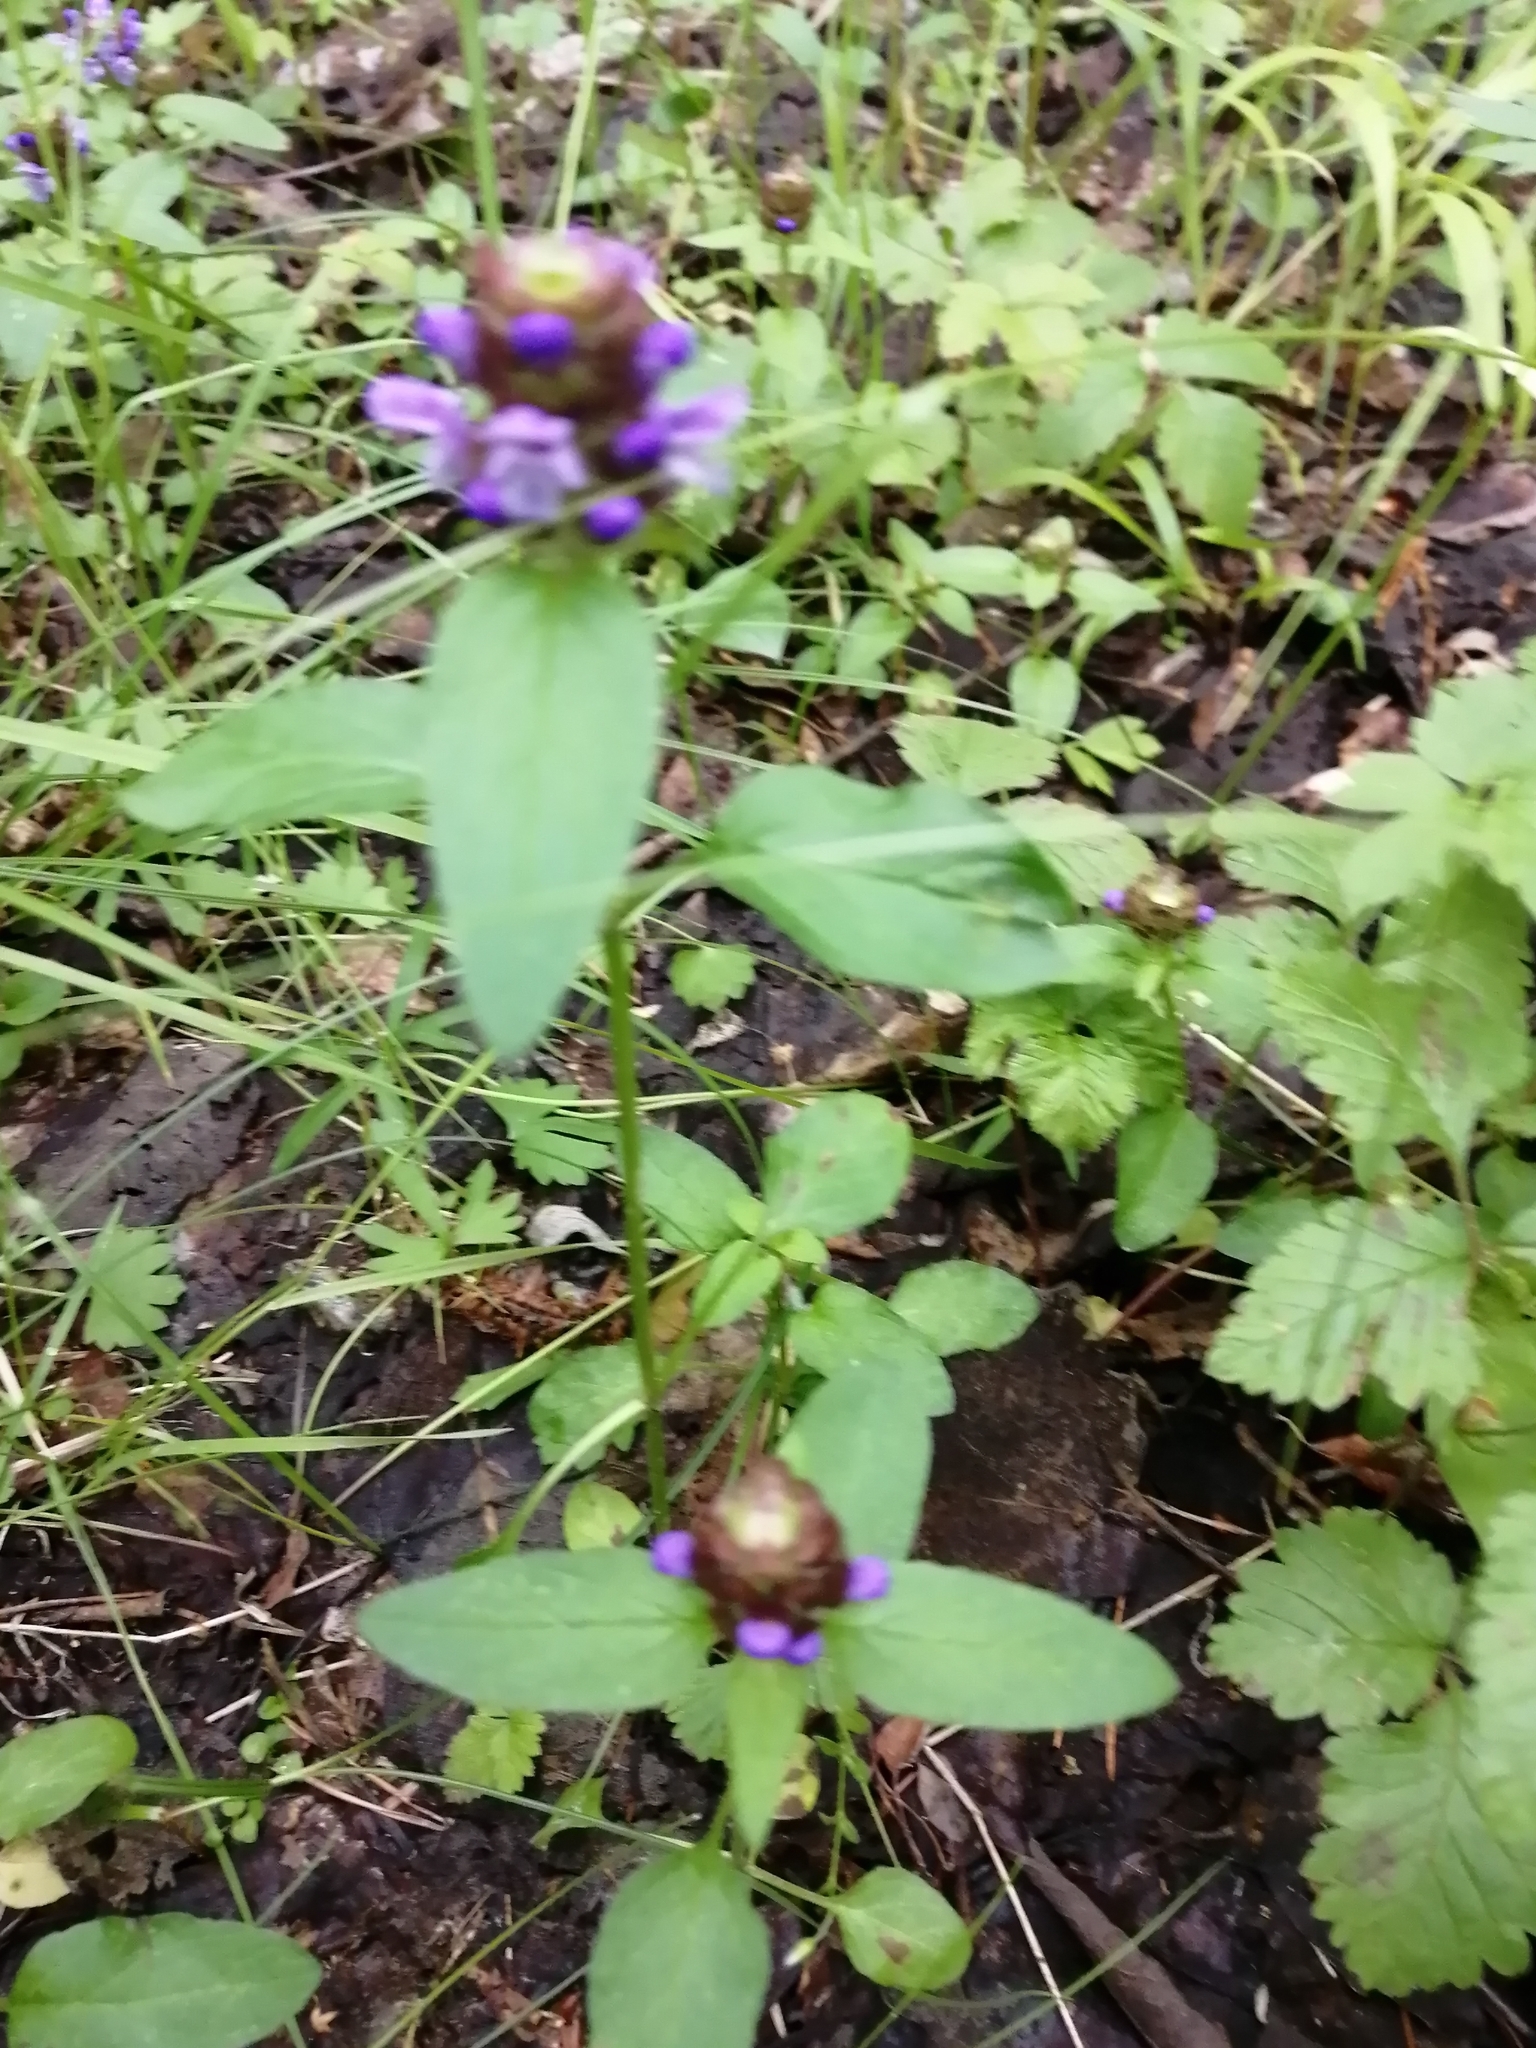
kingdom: Plantae
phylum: Tracheophyta
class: Magnoliopsida
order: Lamiales
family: Lamiaceae
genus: Prunella
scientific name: Prunella vulgaris
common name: Heal-all
